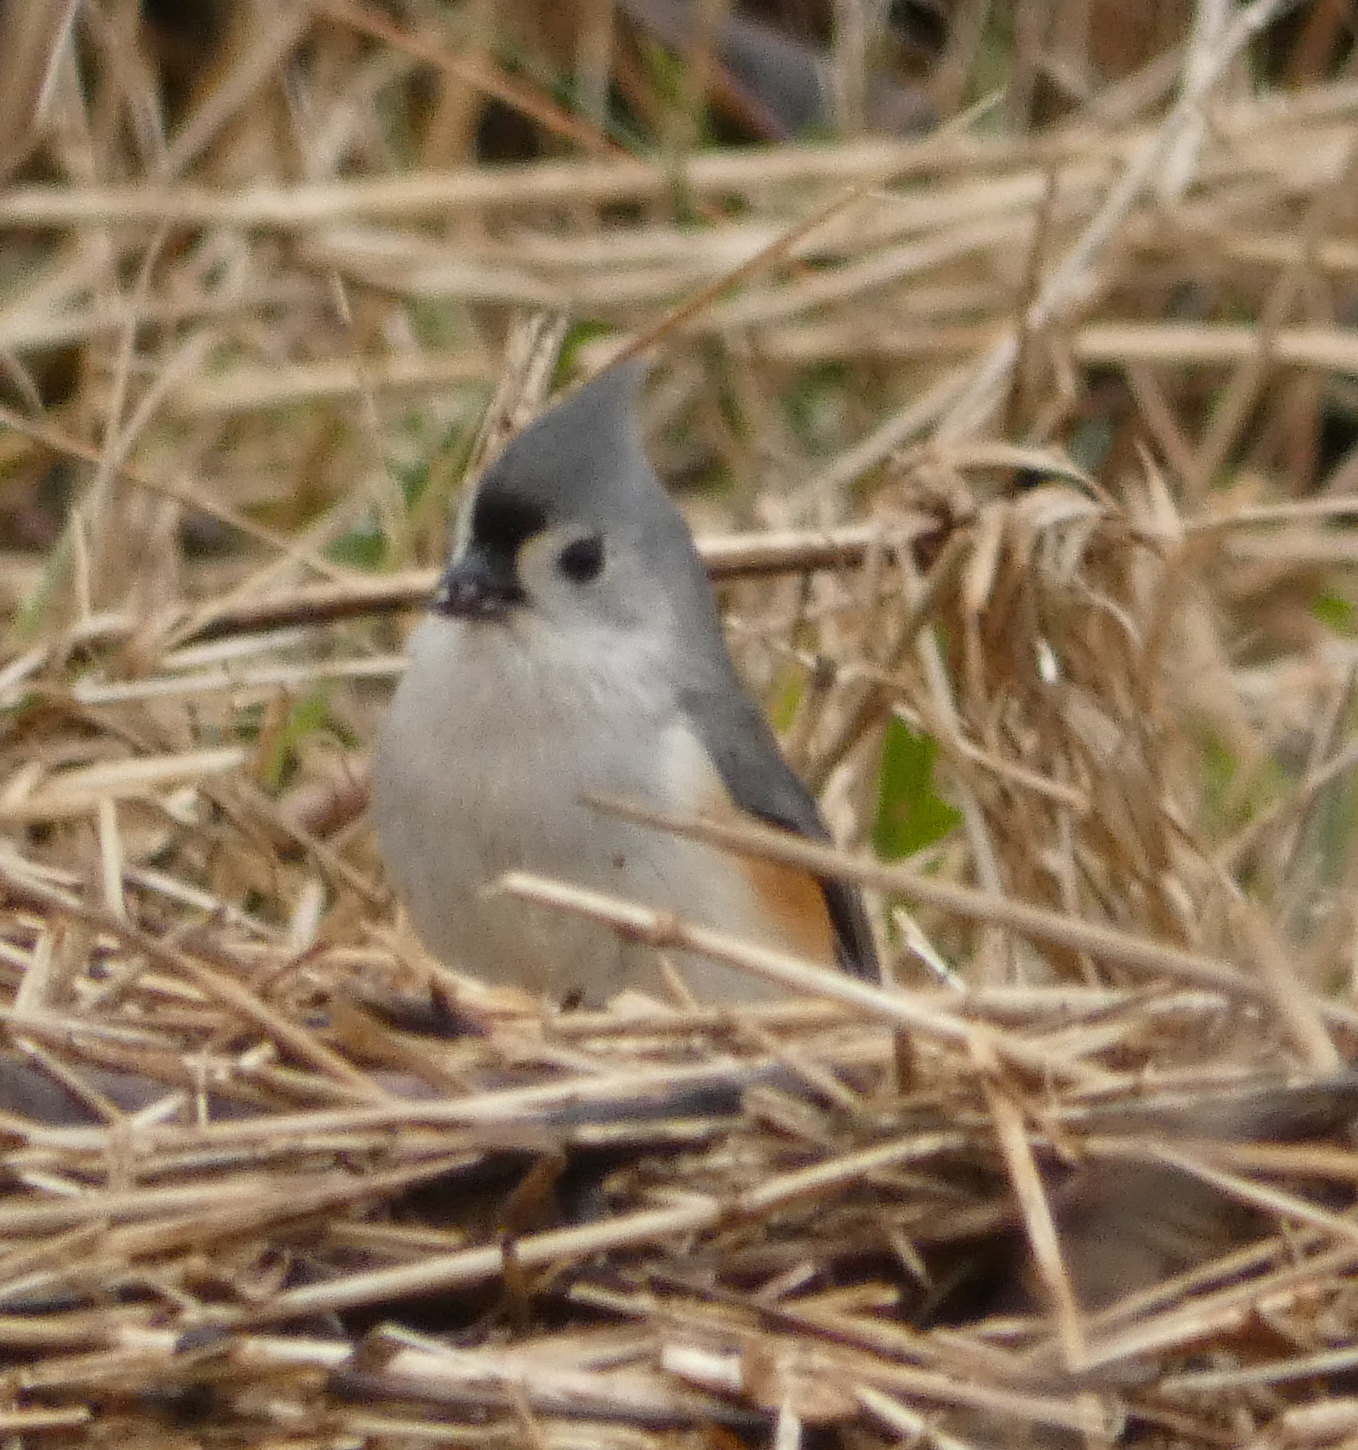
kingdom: Animalia
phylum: Chordata
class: Aves
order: Passeriformes
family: Paridae
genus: Baeolophus
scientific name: Baeolophus bicolor
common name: Tufted titmouse
